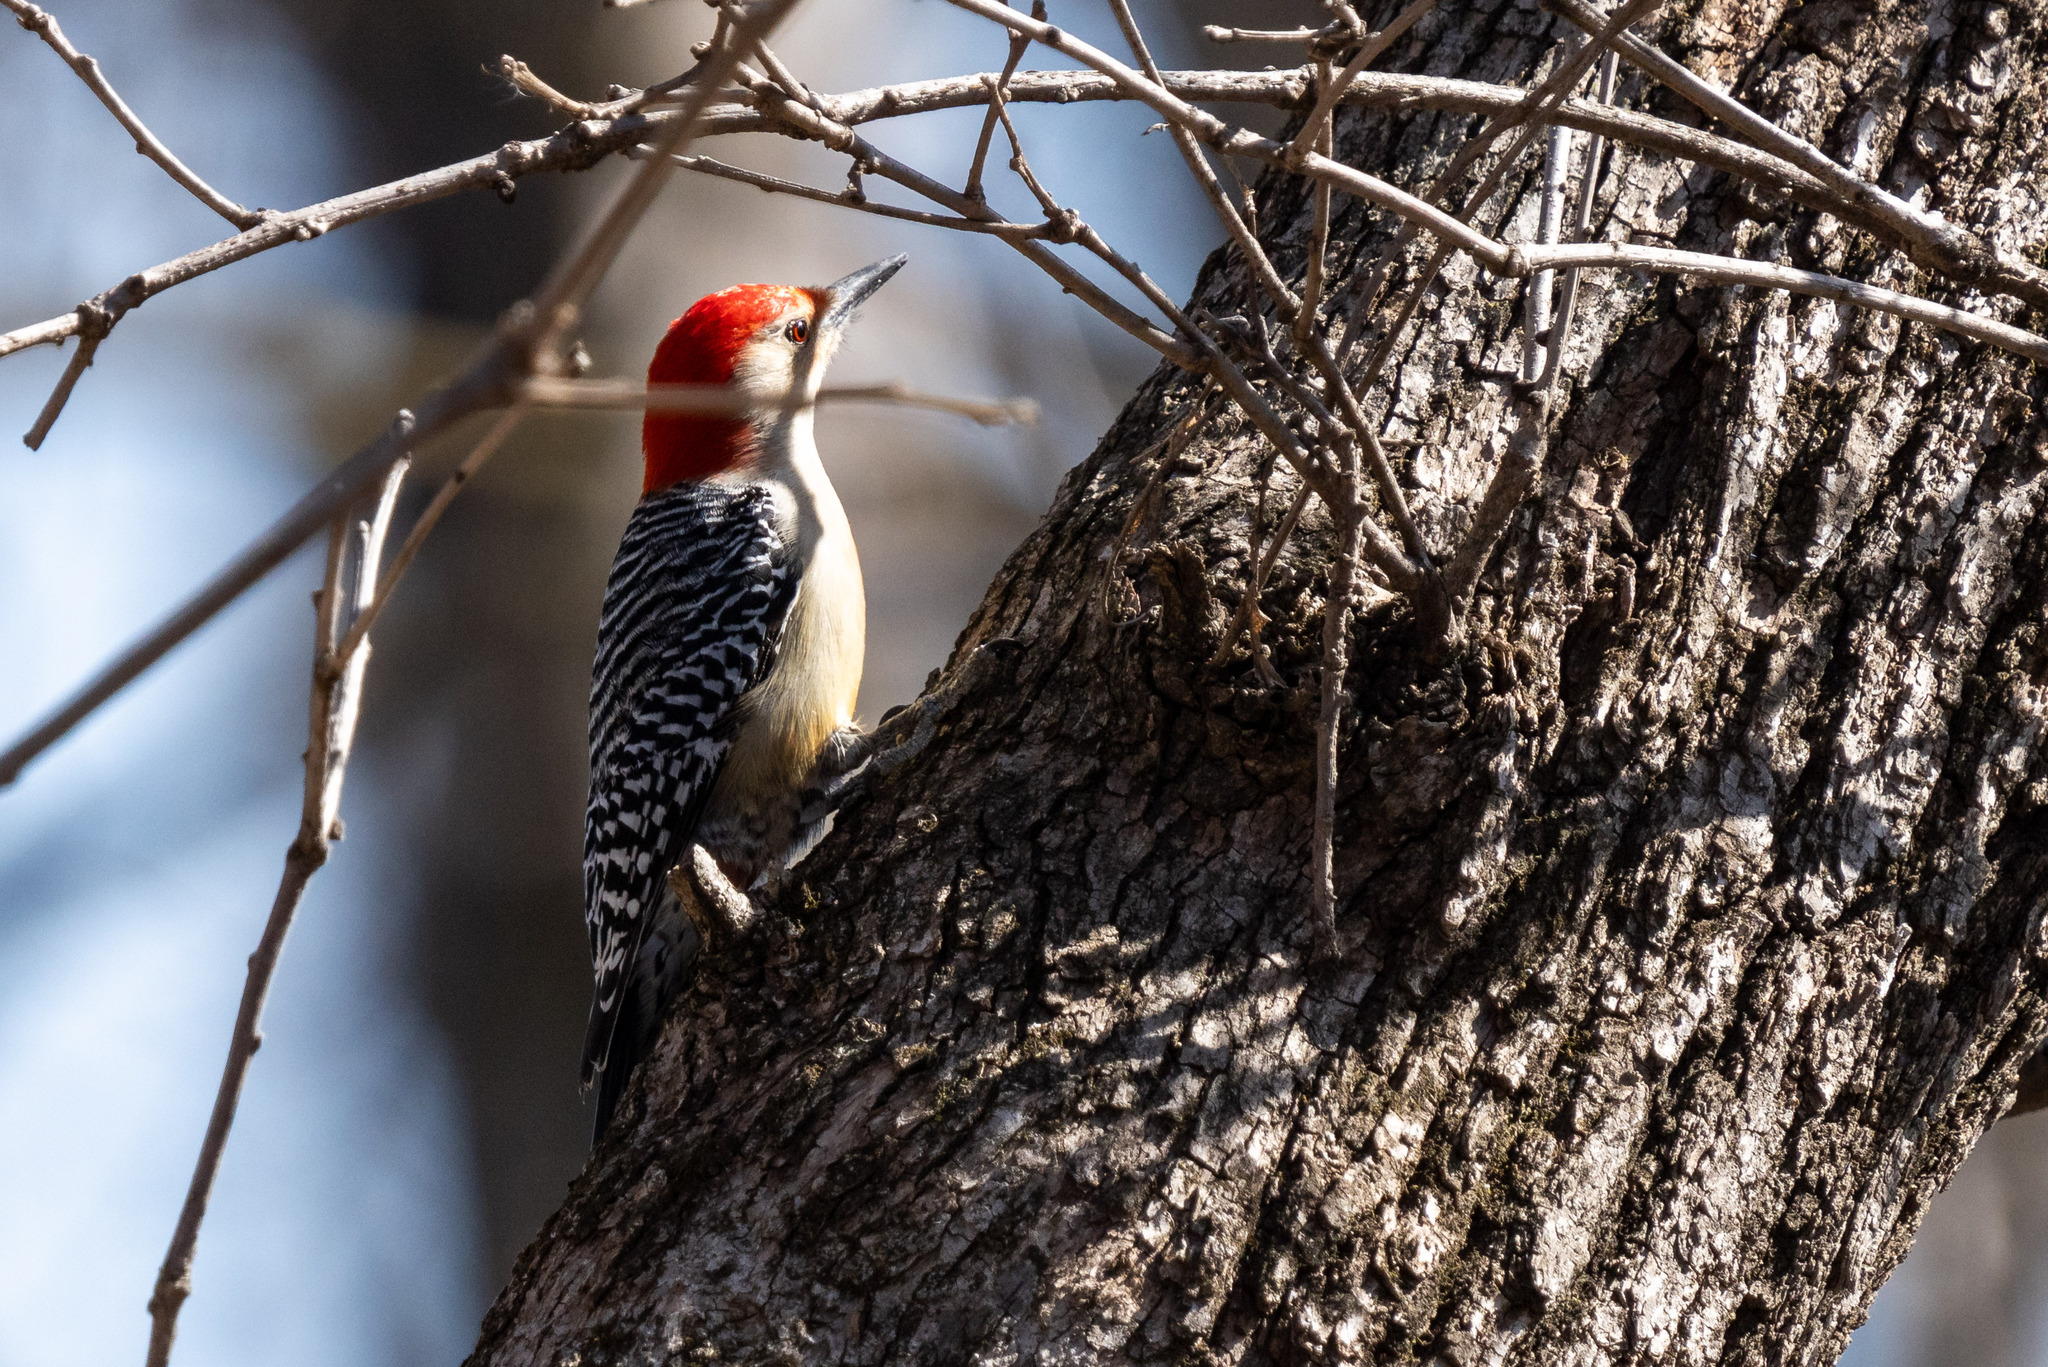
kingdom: Animalia
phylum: Chordata
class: Aves
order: Piciformes
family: Picidae
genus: Melanerpes
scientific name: Melanerpes carolinus
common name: Red-bellied woodpecker
